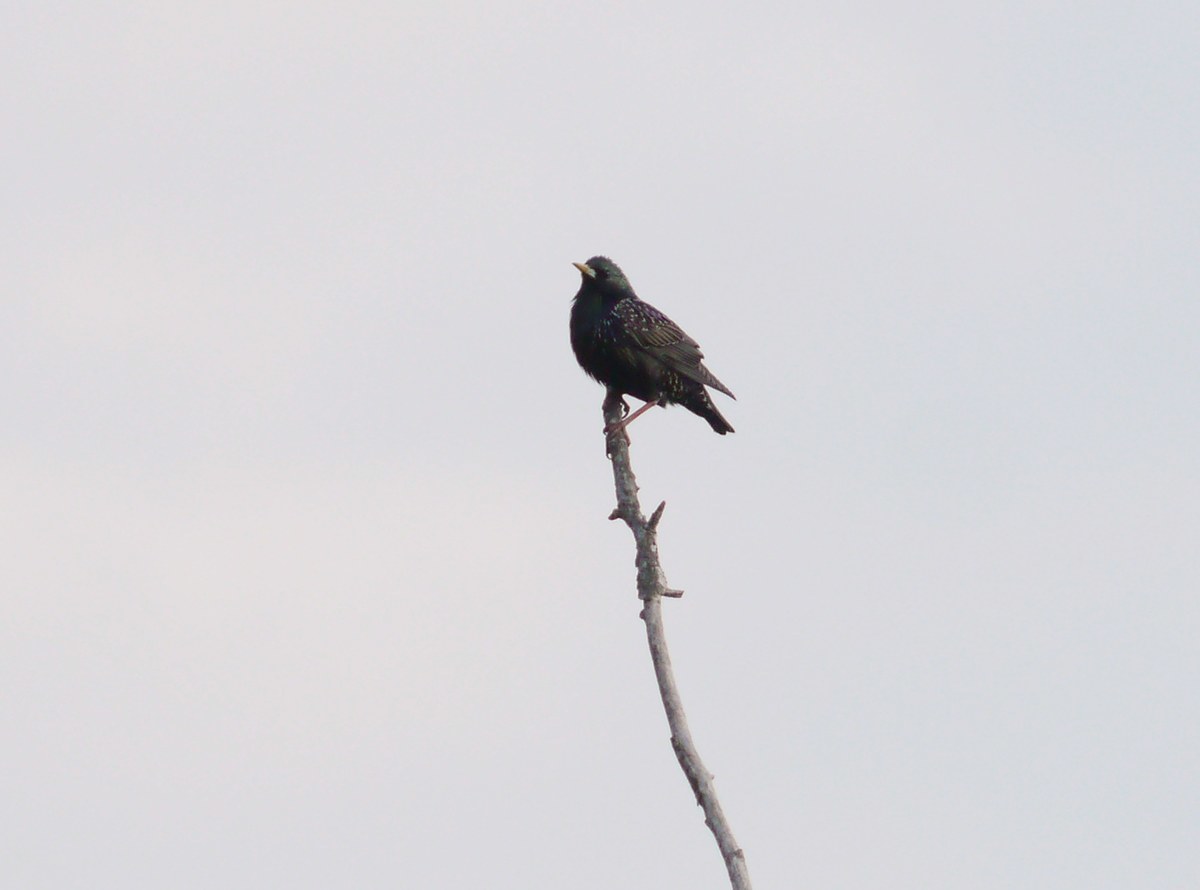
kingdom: Animalia
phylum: Chordata
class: Aves
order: Passeriformes
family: Sturnidae
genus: Sturnus
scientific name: Sturnus vulgaris
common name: Common starling
